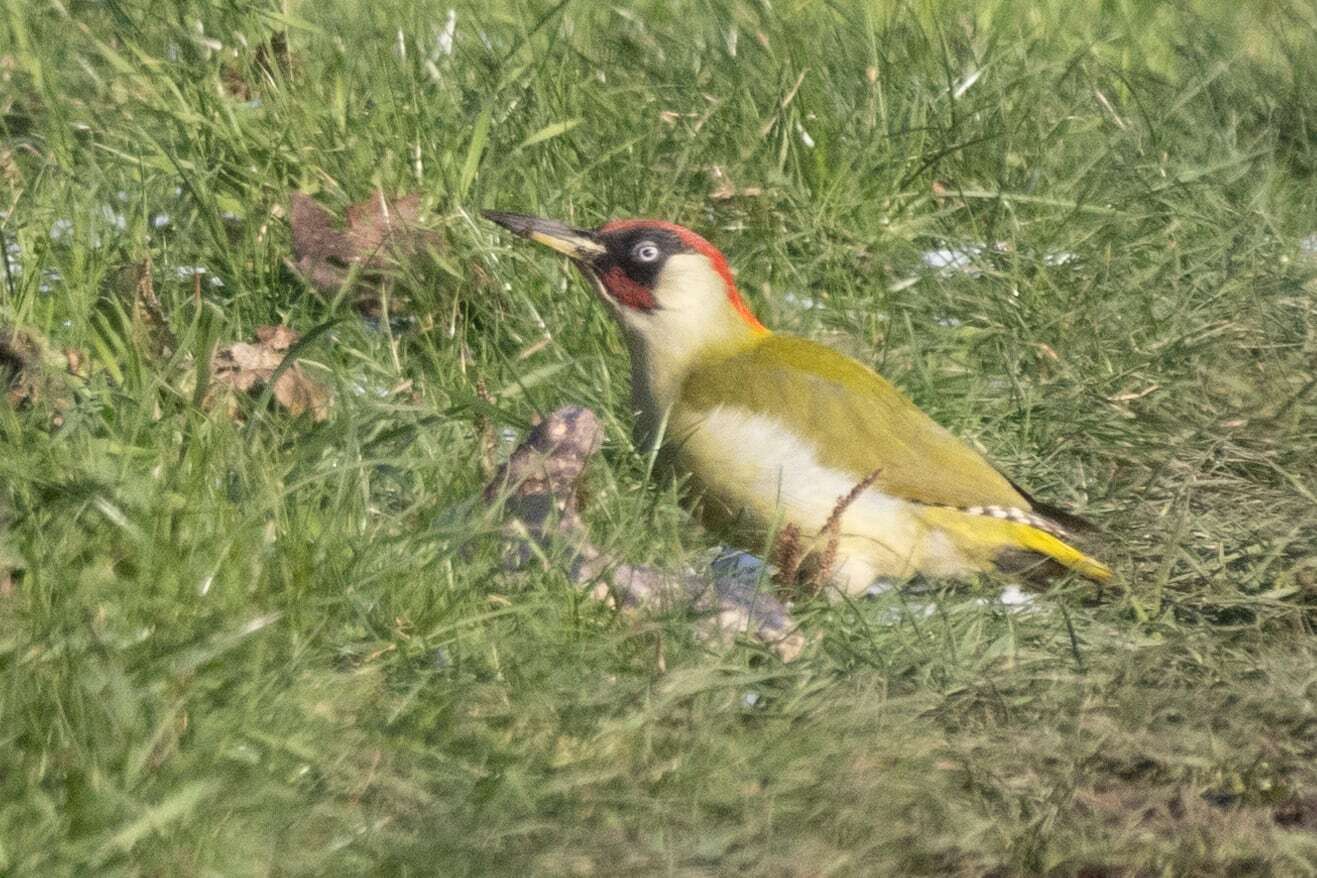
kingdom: Animalia
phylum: Chordata
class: Aves
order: Piciformes
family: Picidae
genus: Picus
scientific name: Picus viridis
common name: European green woodpecker
